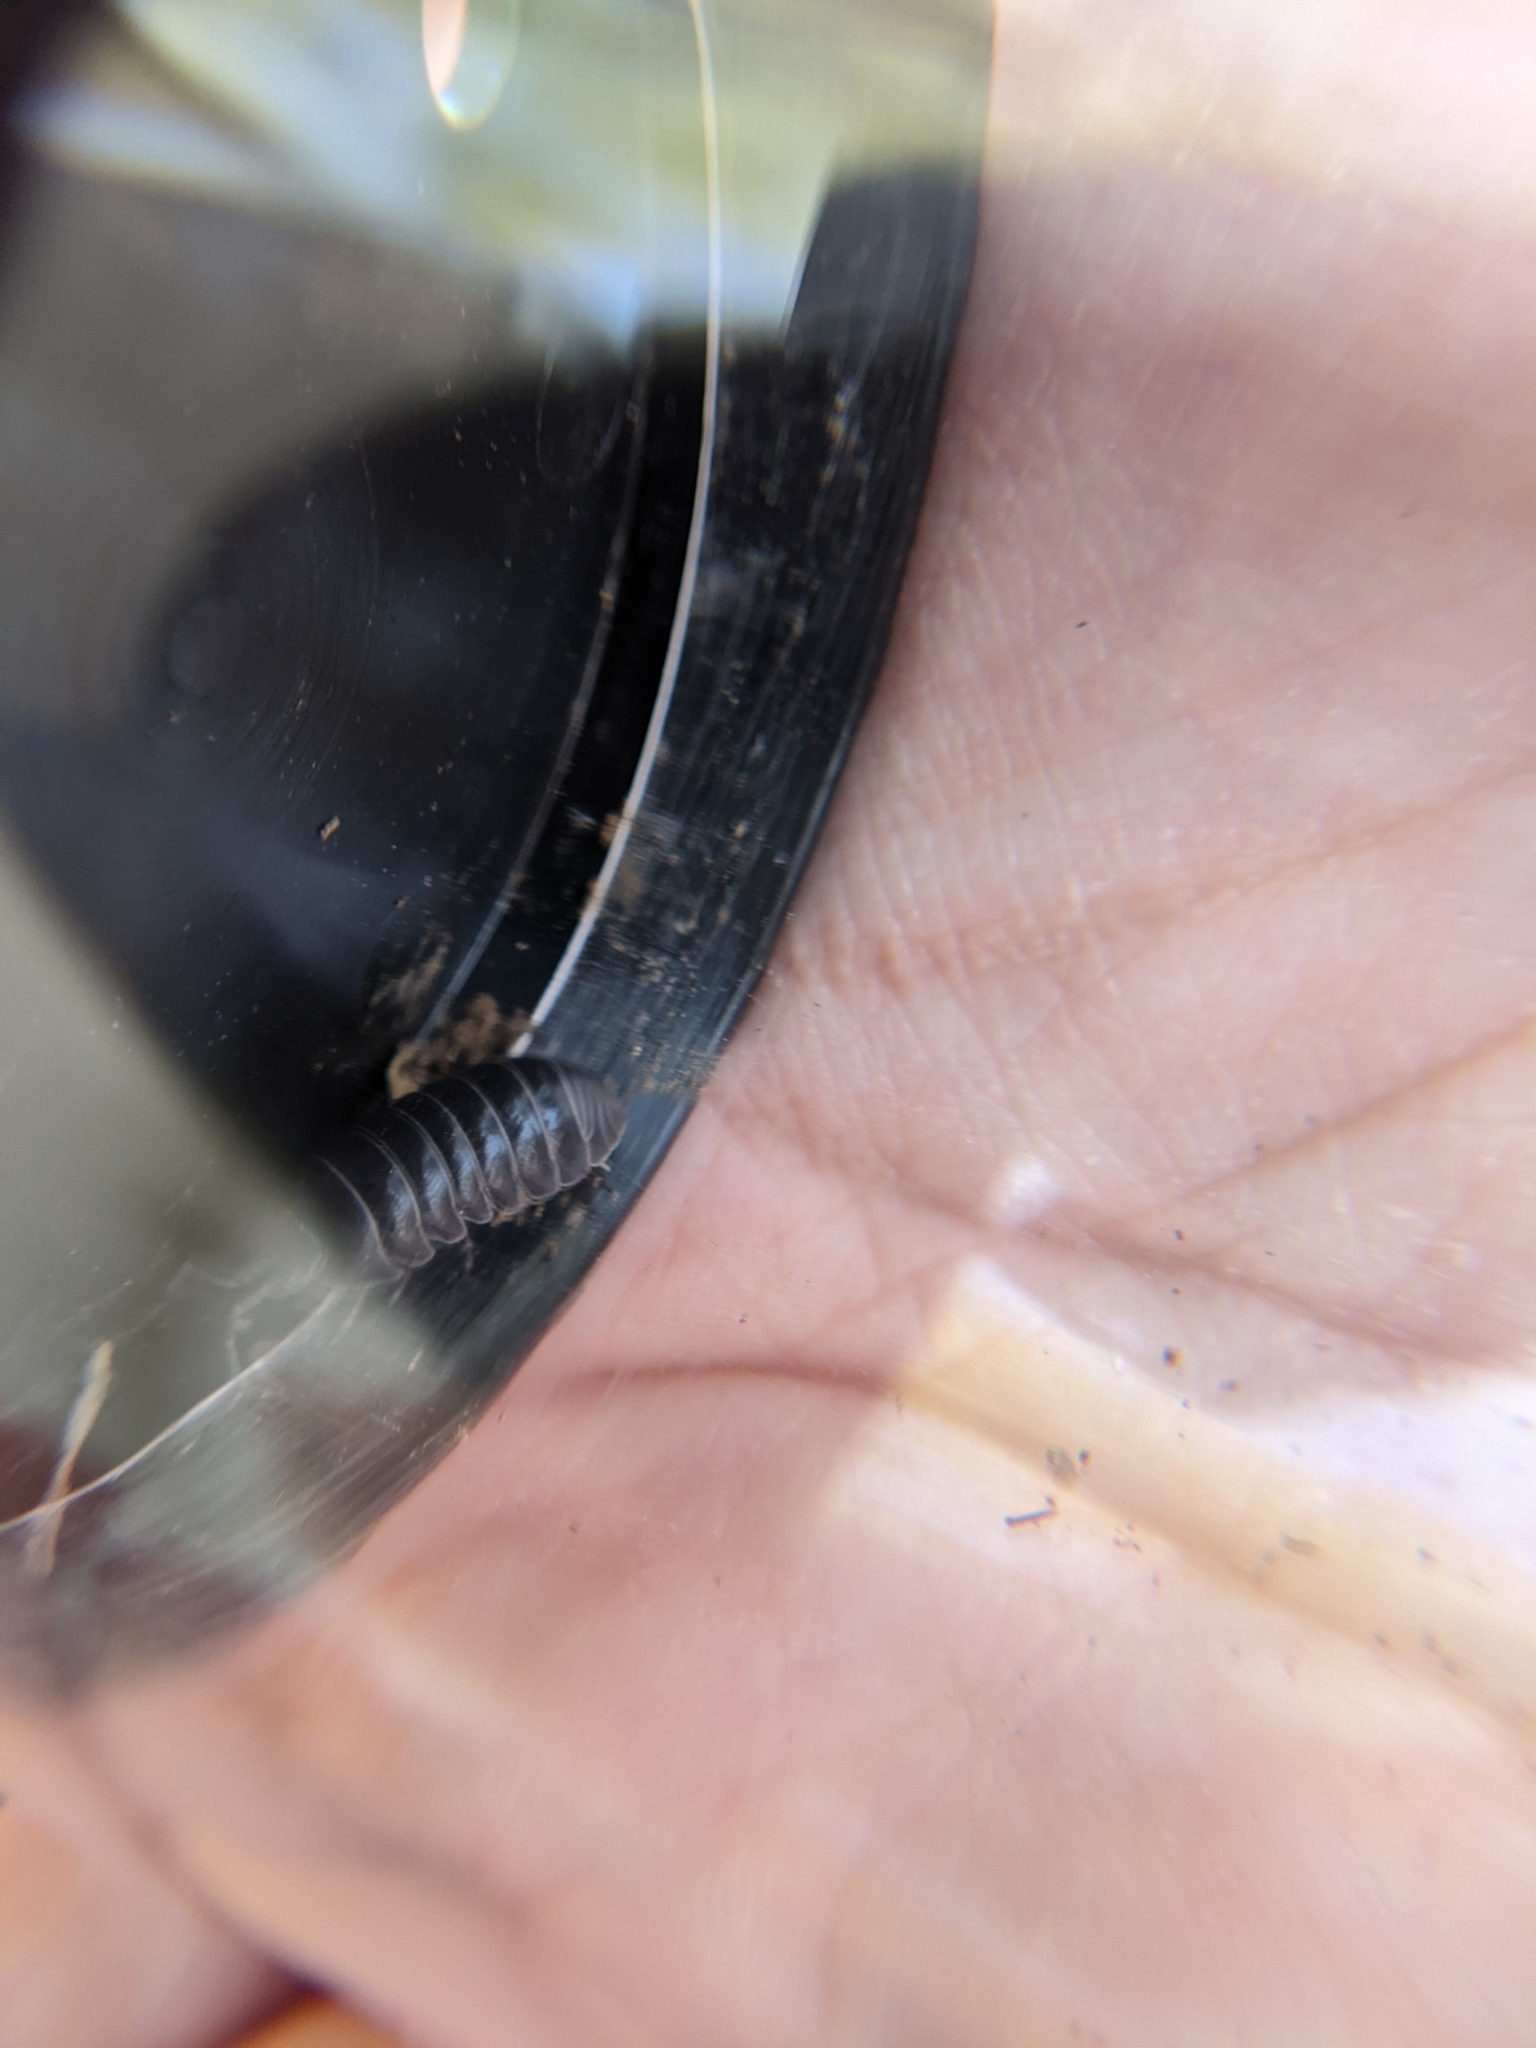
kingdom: Animalia
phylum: Arthropoda
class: Malacostraca
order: Isopoda
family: Armadillidiidae
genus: Armadillidium
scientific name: Armadillidium vulgare
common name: Common pill woodlouse
